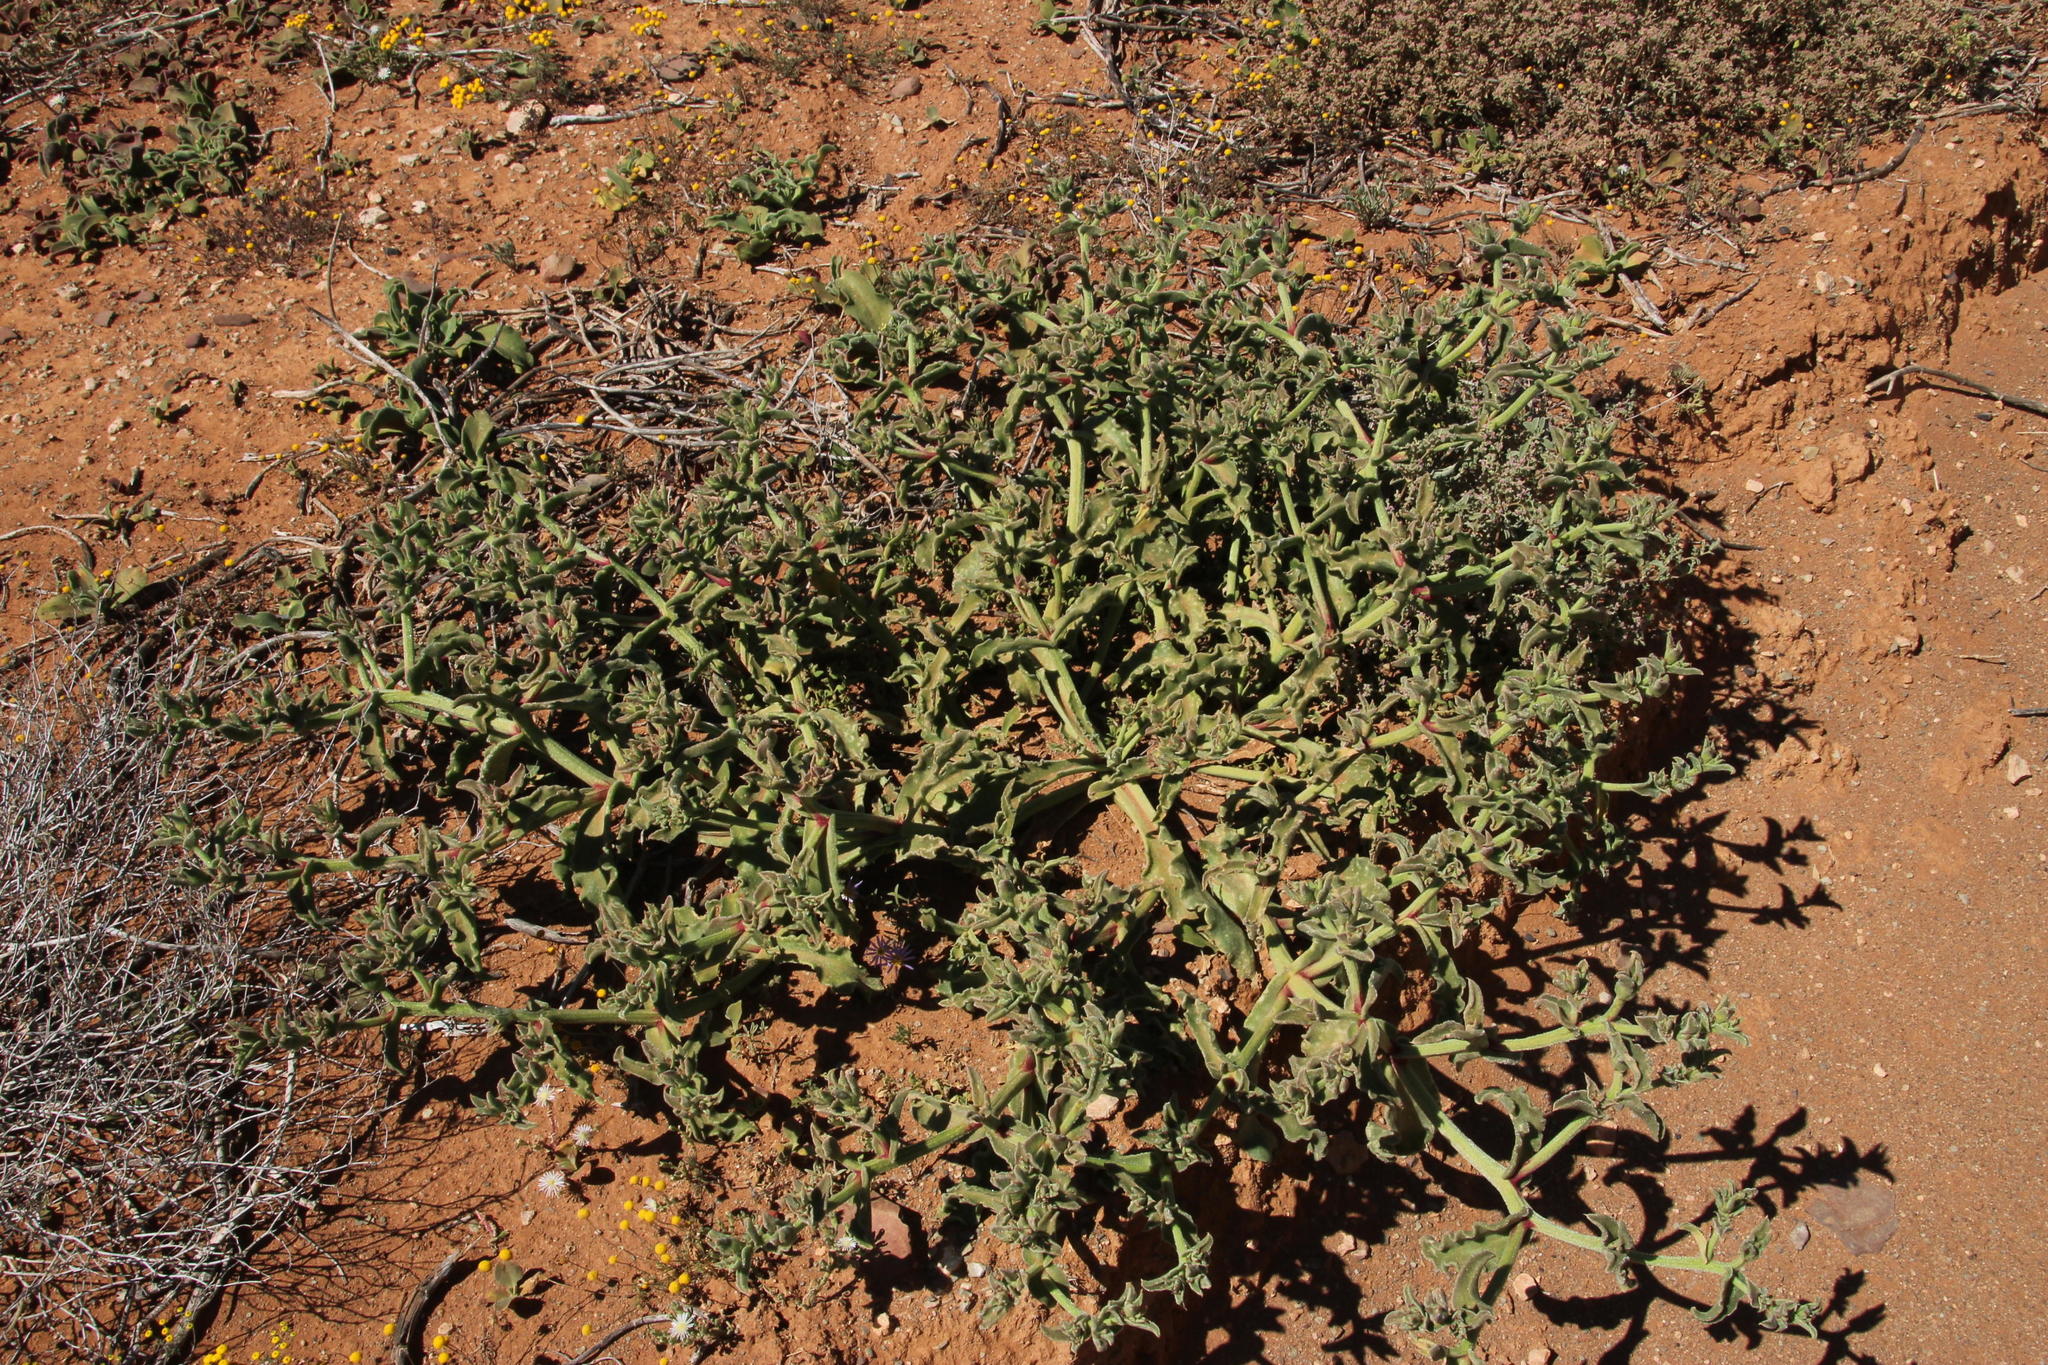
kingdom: Plantae
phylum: Tracheophyta
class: Magnoliopsida
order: Caryophyllales
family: Aizoaceae
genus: Mesembryanthemum
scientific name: Mesembryanthemum crystallinum
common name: Common iceplant
